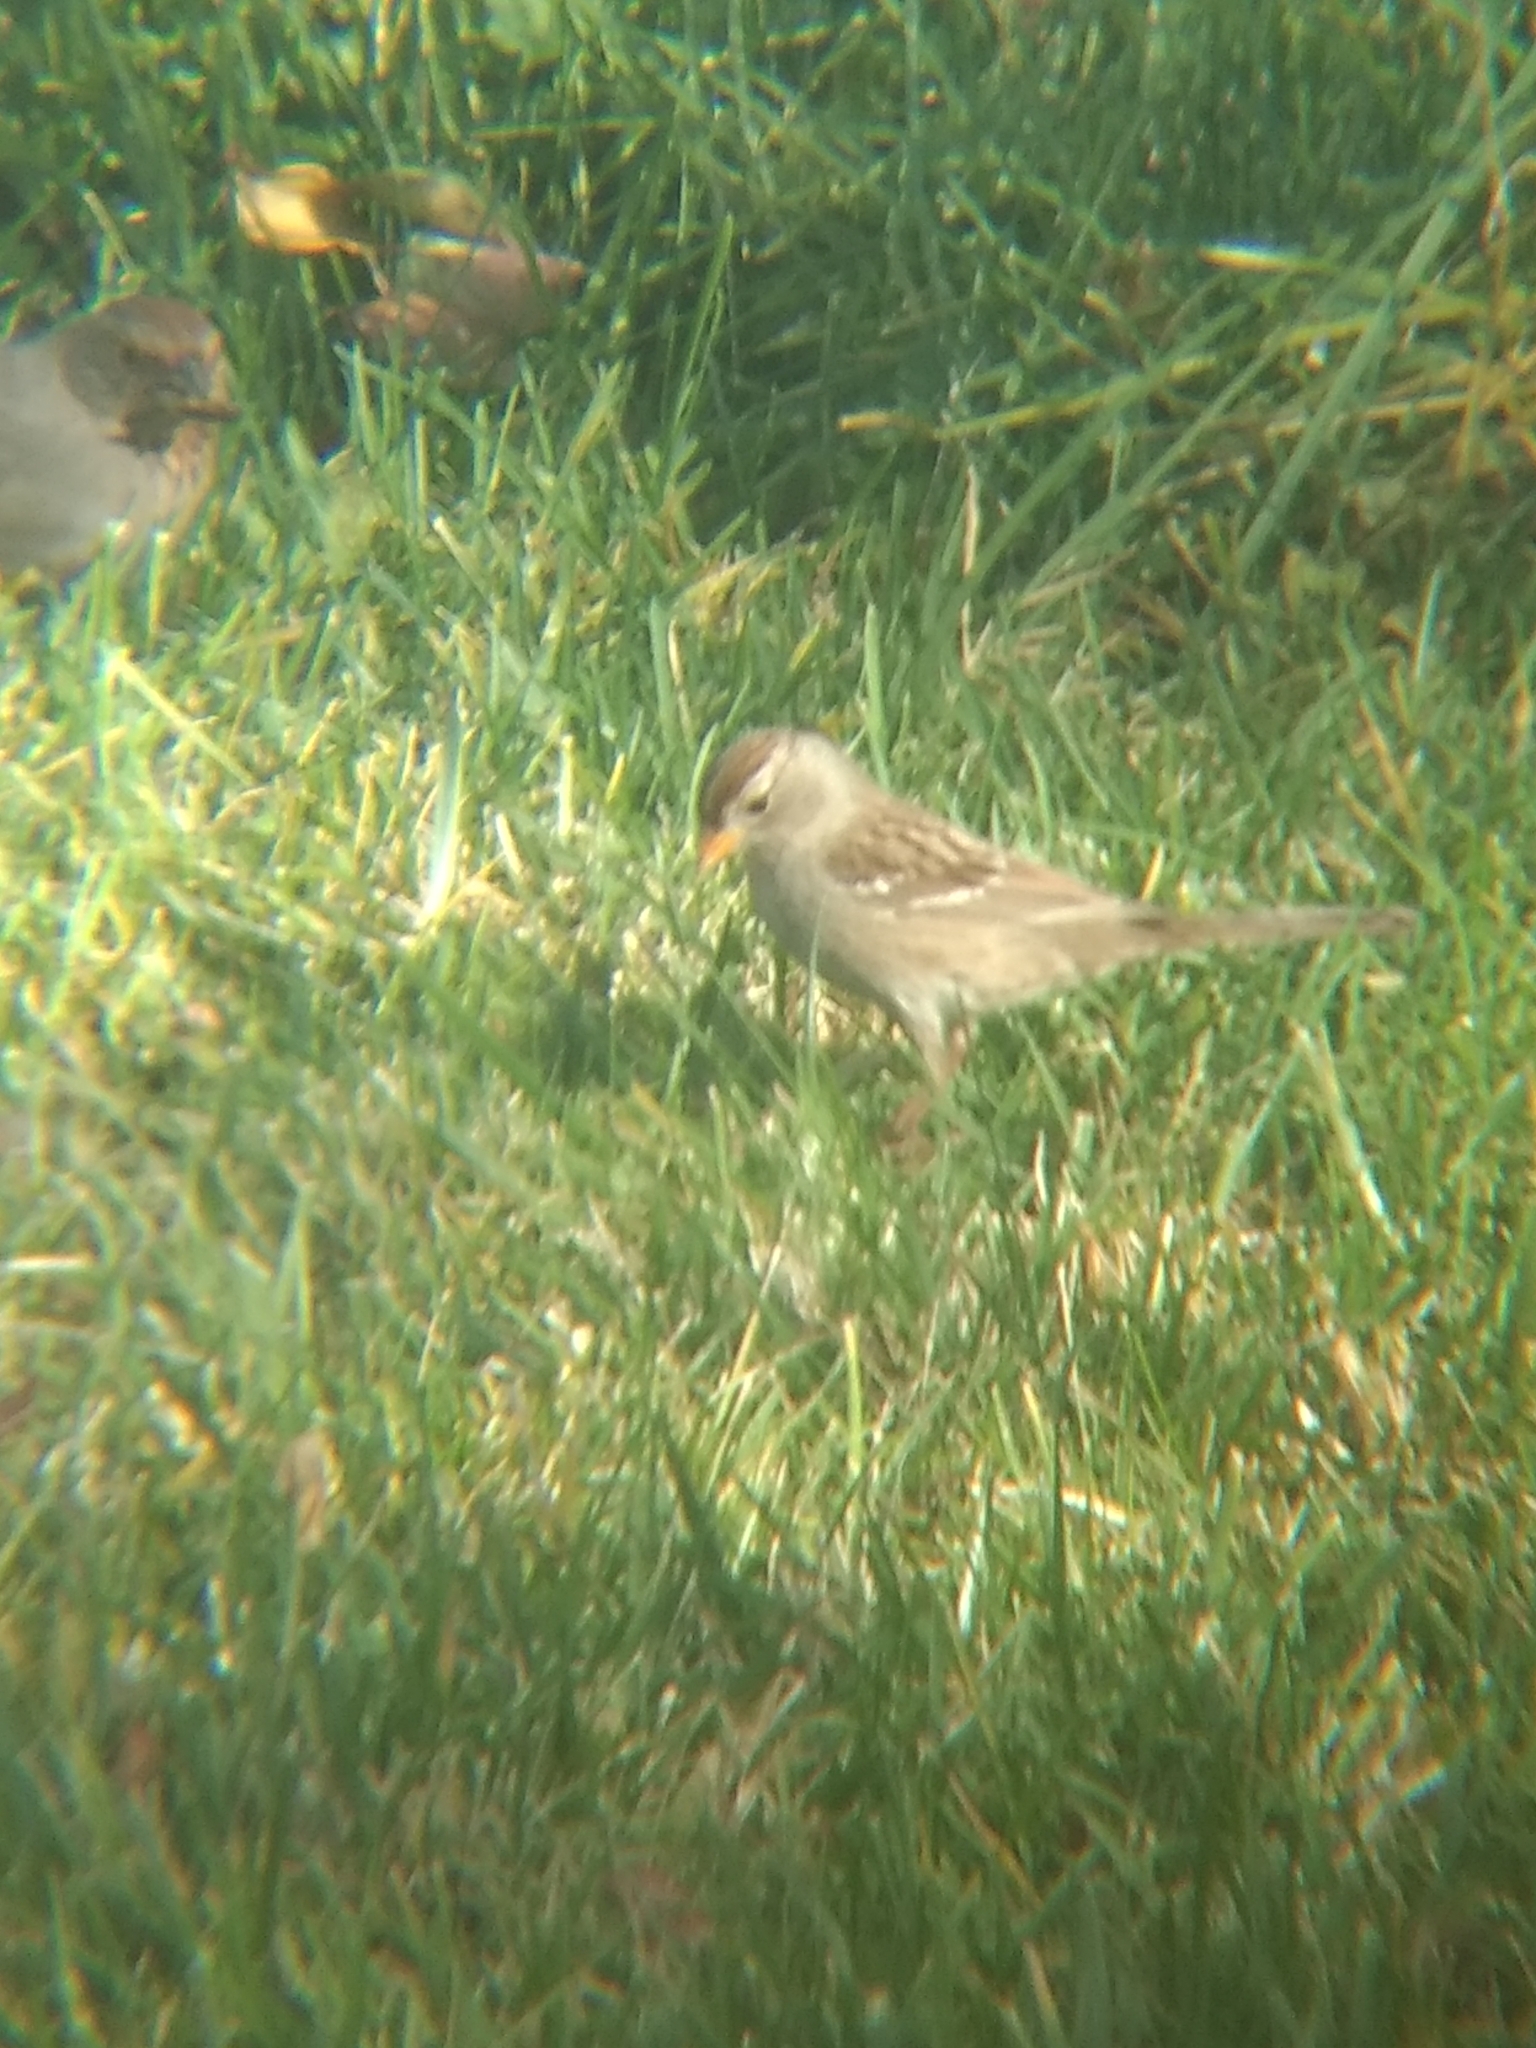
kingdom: Animalia
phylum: Chordata
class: Aves
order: Passeriformes
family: Passerellidae
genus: Zonotrichia
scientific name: Zonotrichia leucophrys
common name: White-crowned sparrow
